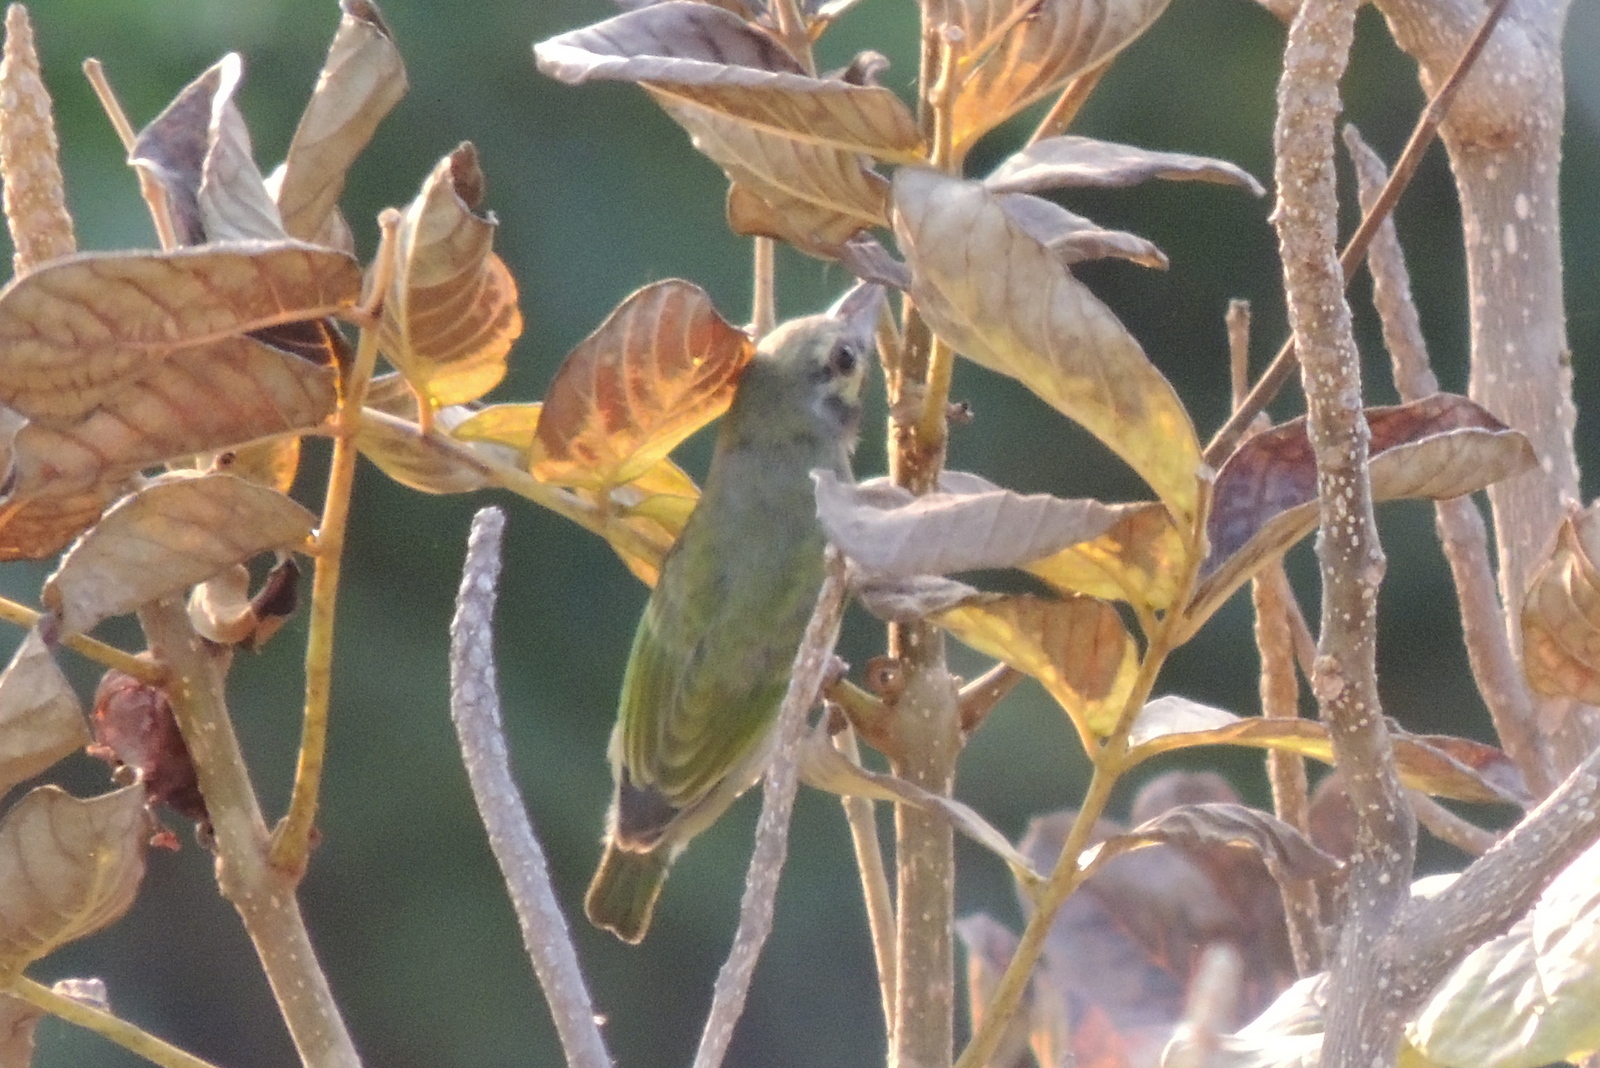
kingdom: Animalia
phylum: Chordata
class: Aves
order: Piciformes
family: Megalaimidae
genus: Psilopogon
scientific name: Psilopogon haemacephalus
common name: Coppersmith barbet
